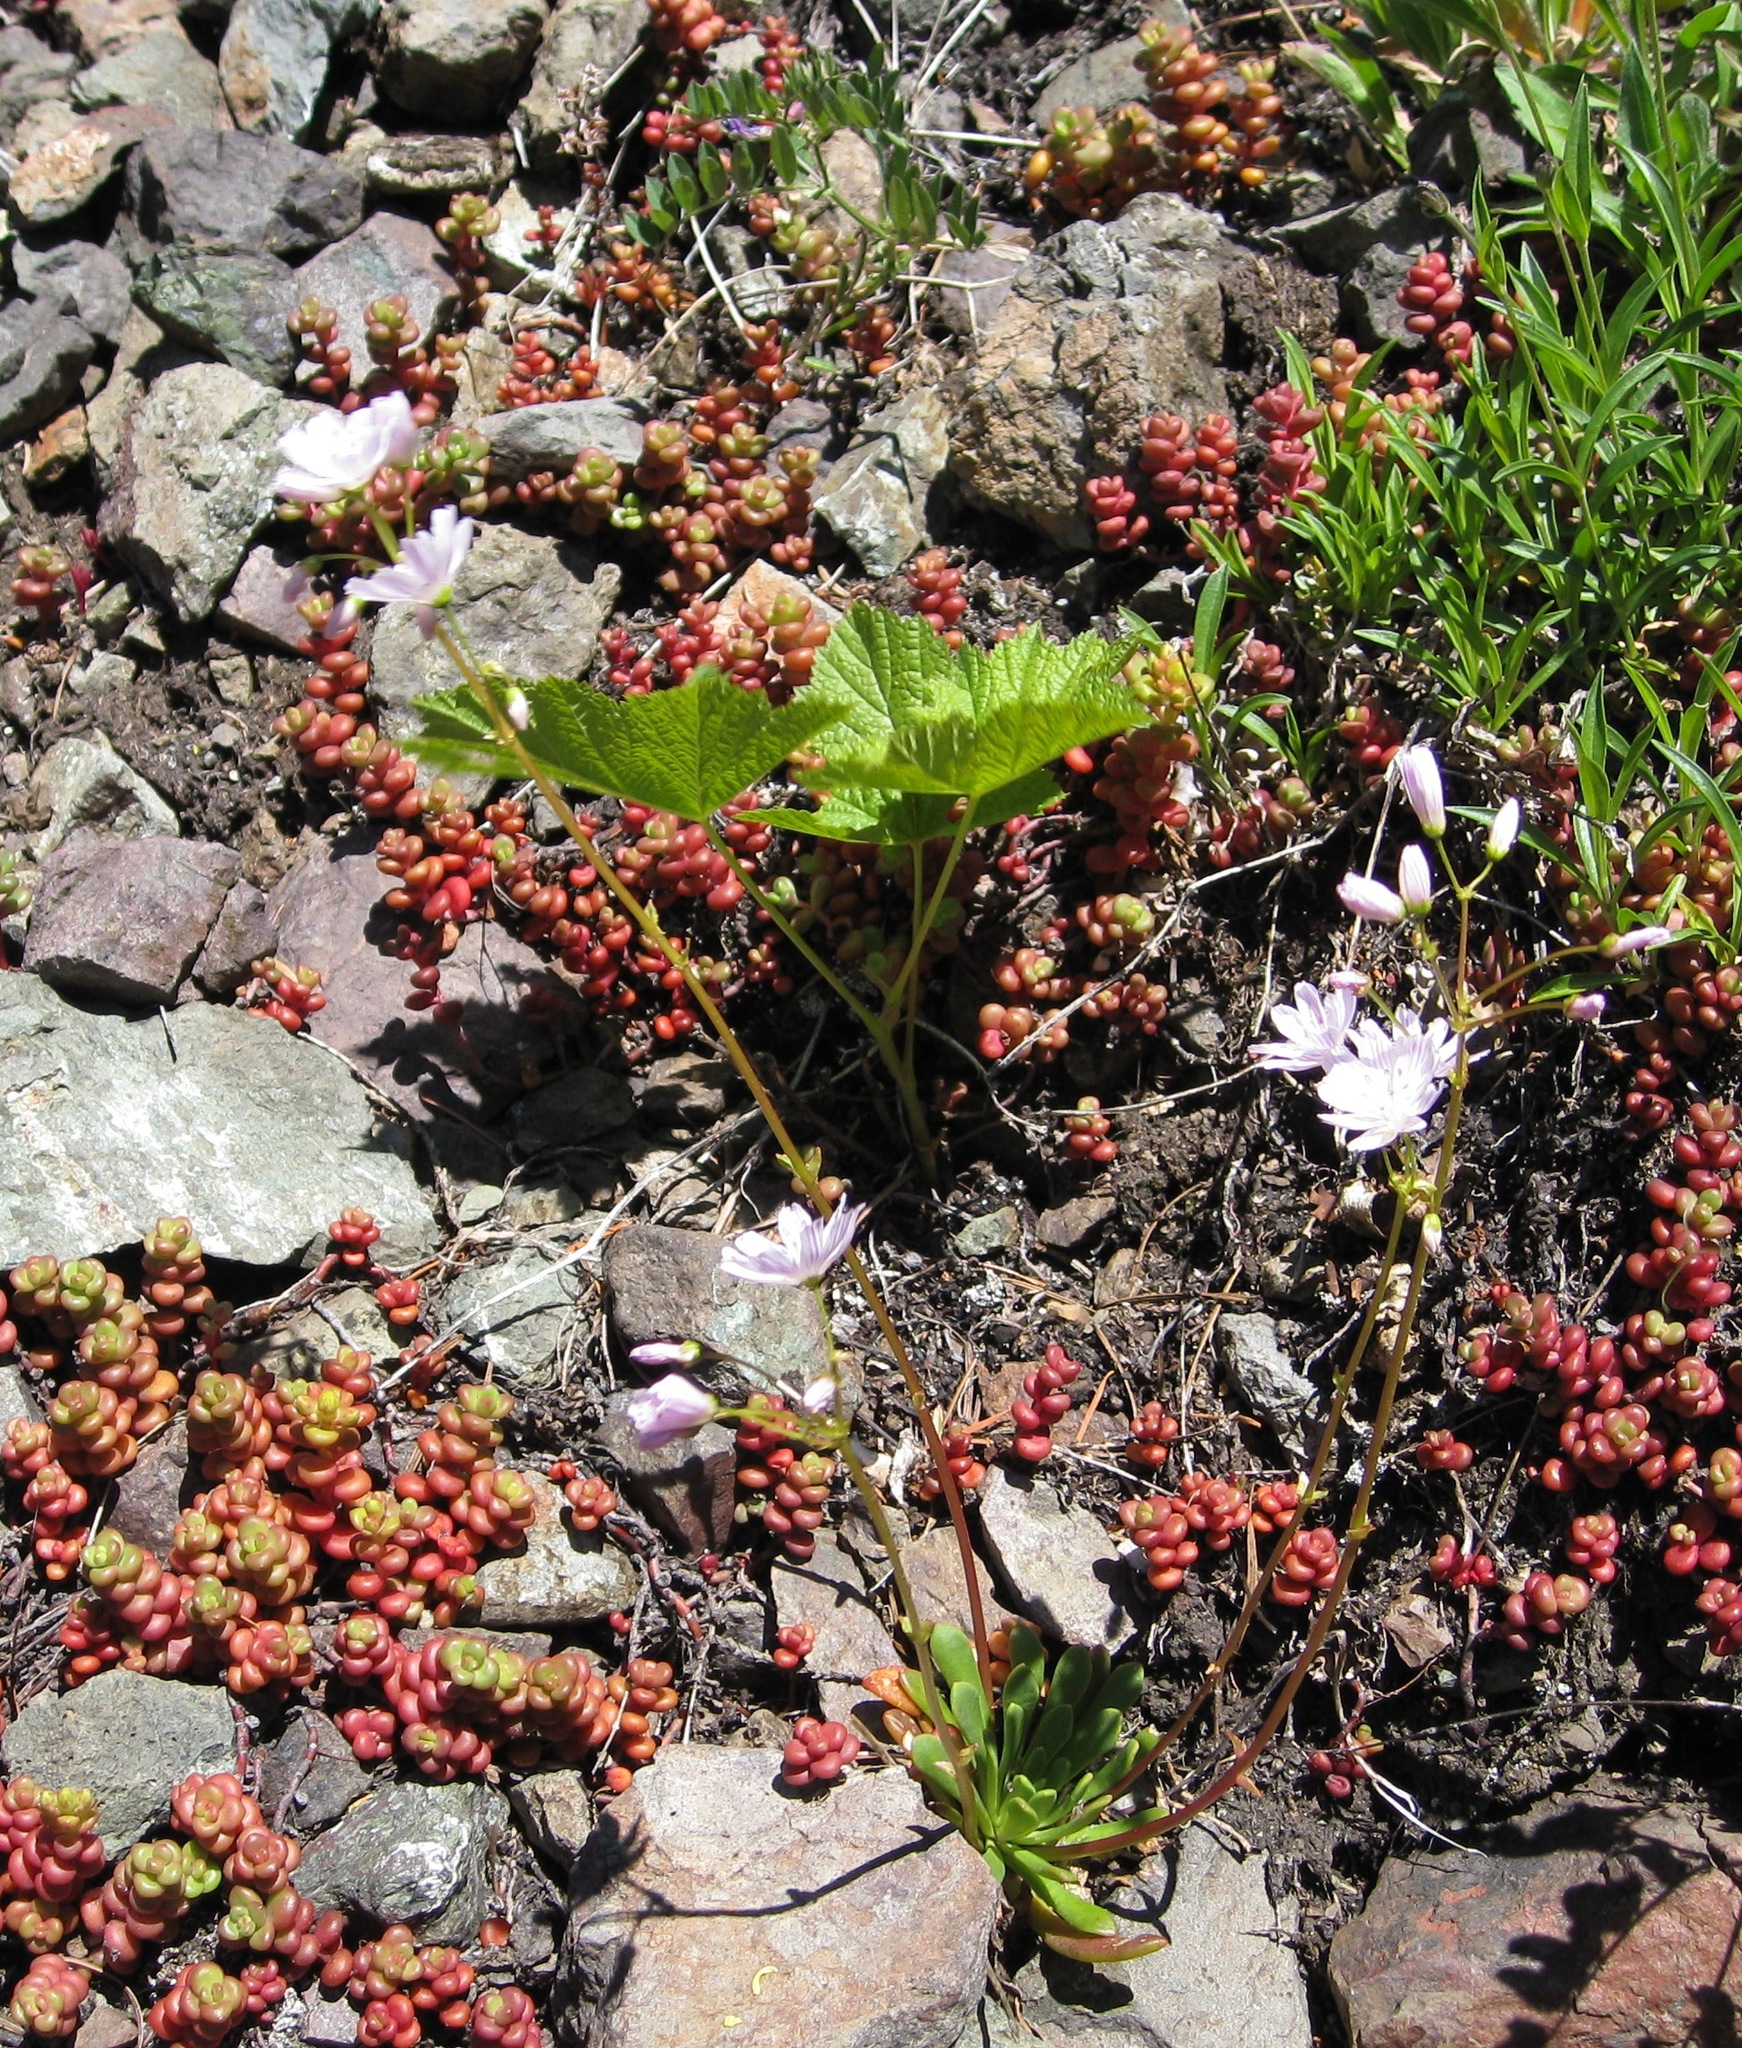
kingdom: Plantae
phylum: Tracheophyta
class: Magnoliopsida
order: Caryophyllales
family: Montiaceae
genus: Lewisia
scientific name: Lewisia columbiana
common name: Columbia lewisia
